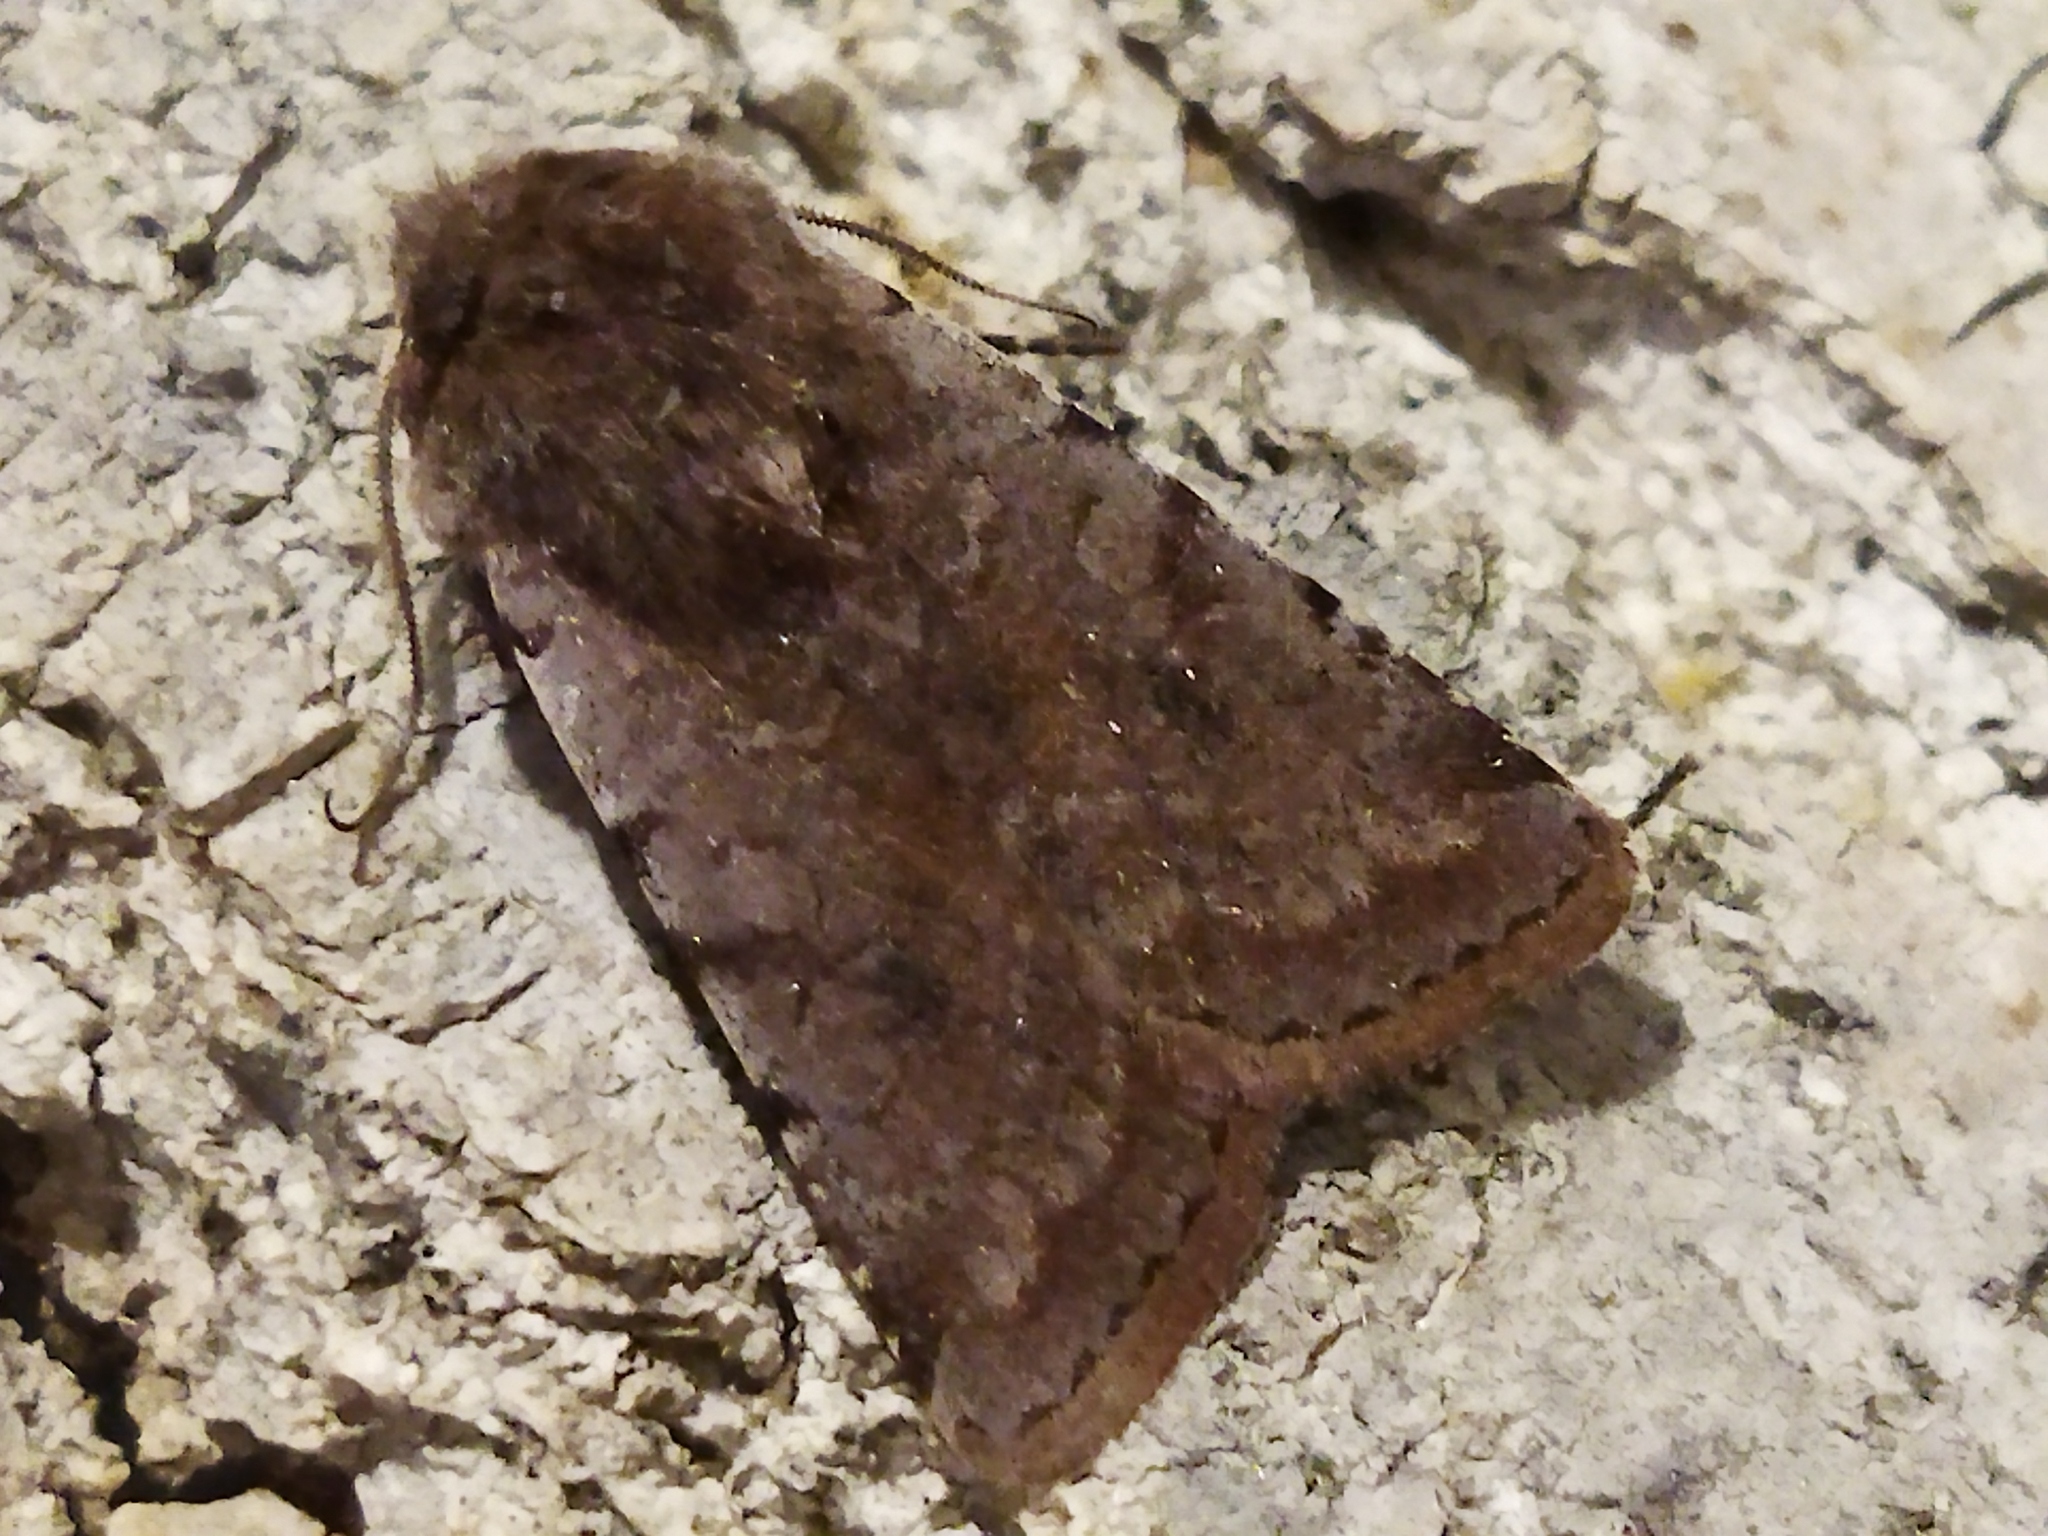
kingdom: Animalia
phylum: Arthropoda
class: Insecta
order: Lepidoptera
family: Noctuidae
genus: Cerastis
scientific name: Cerastis rubricosa
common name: Red chestnut
